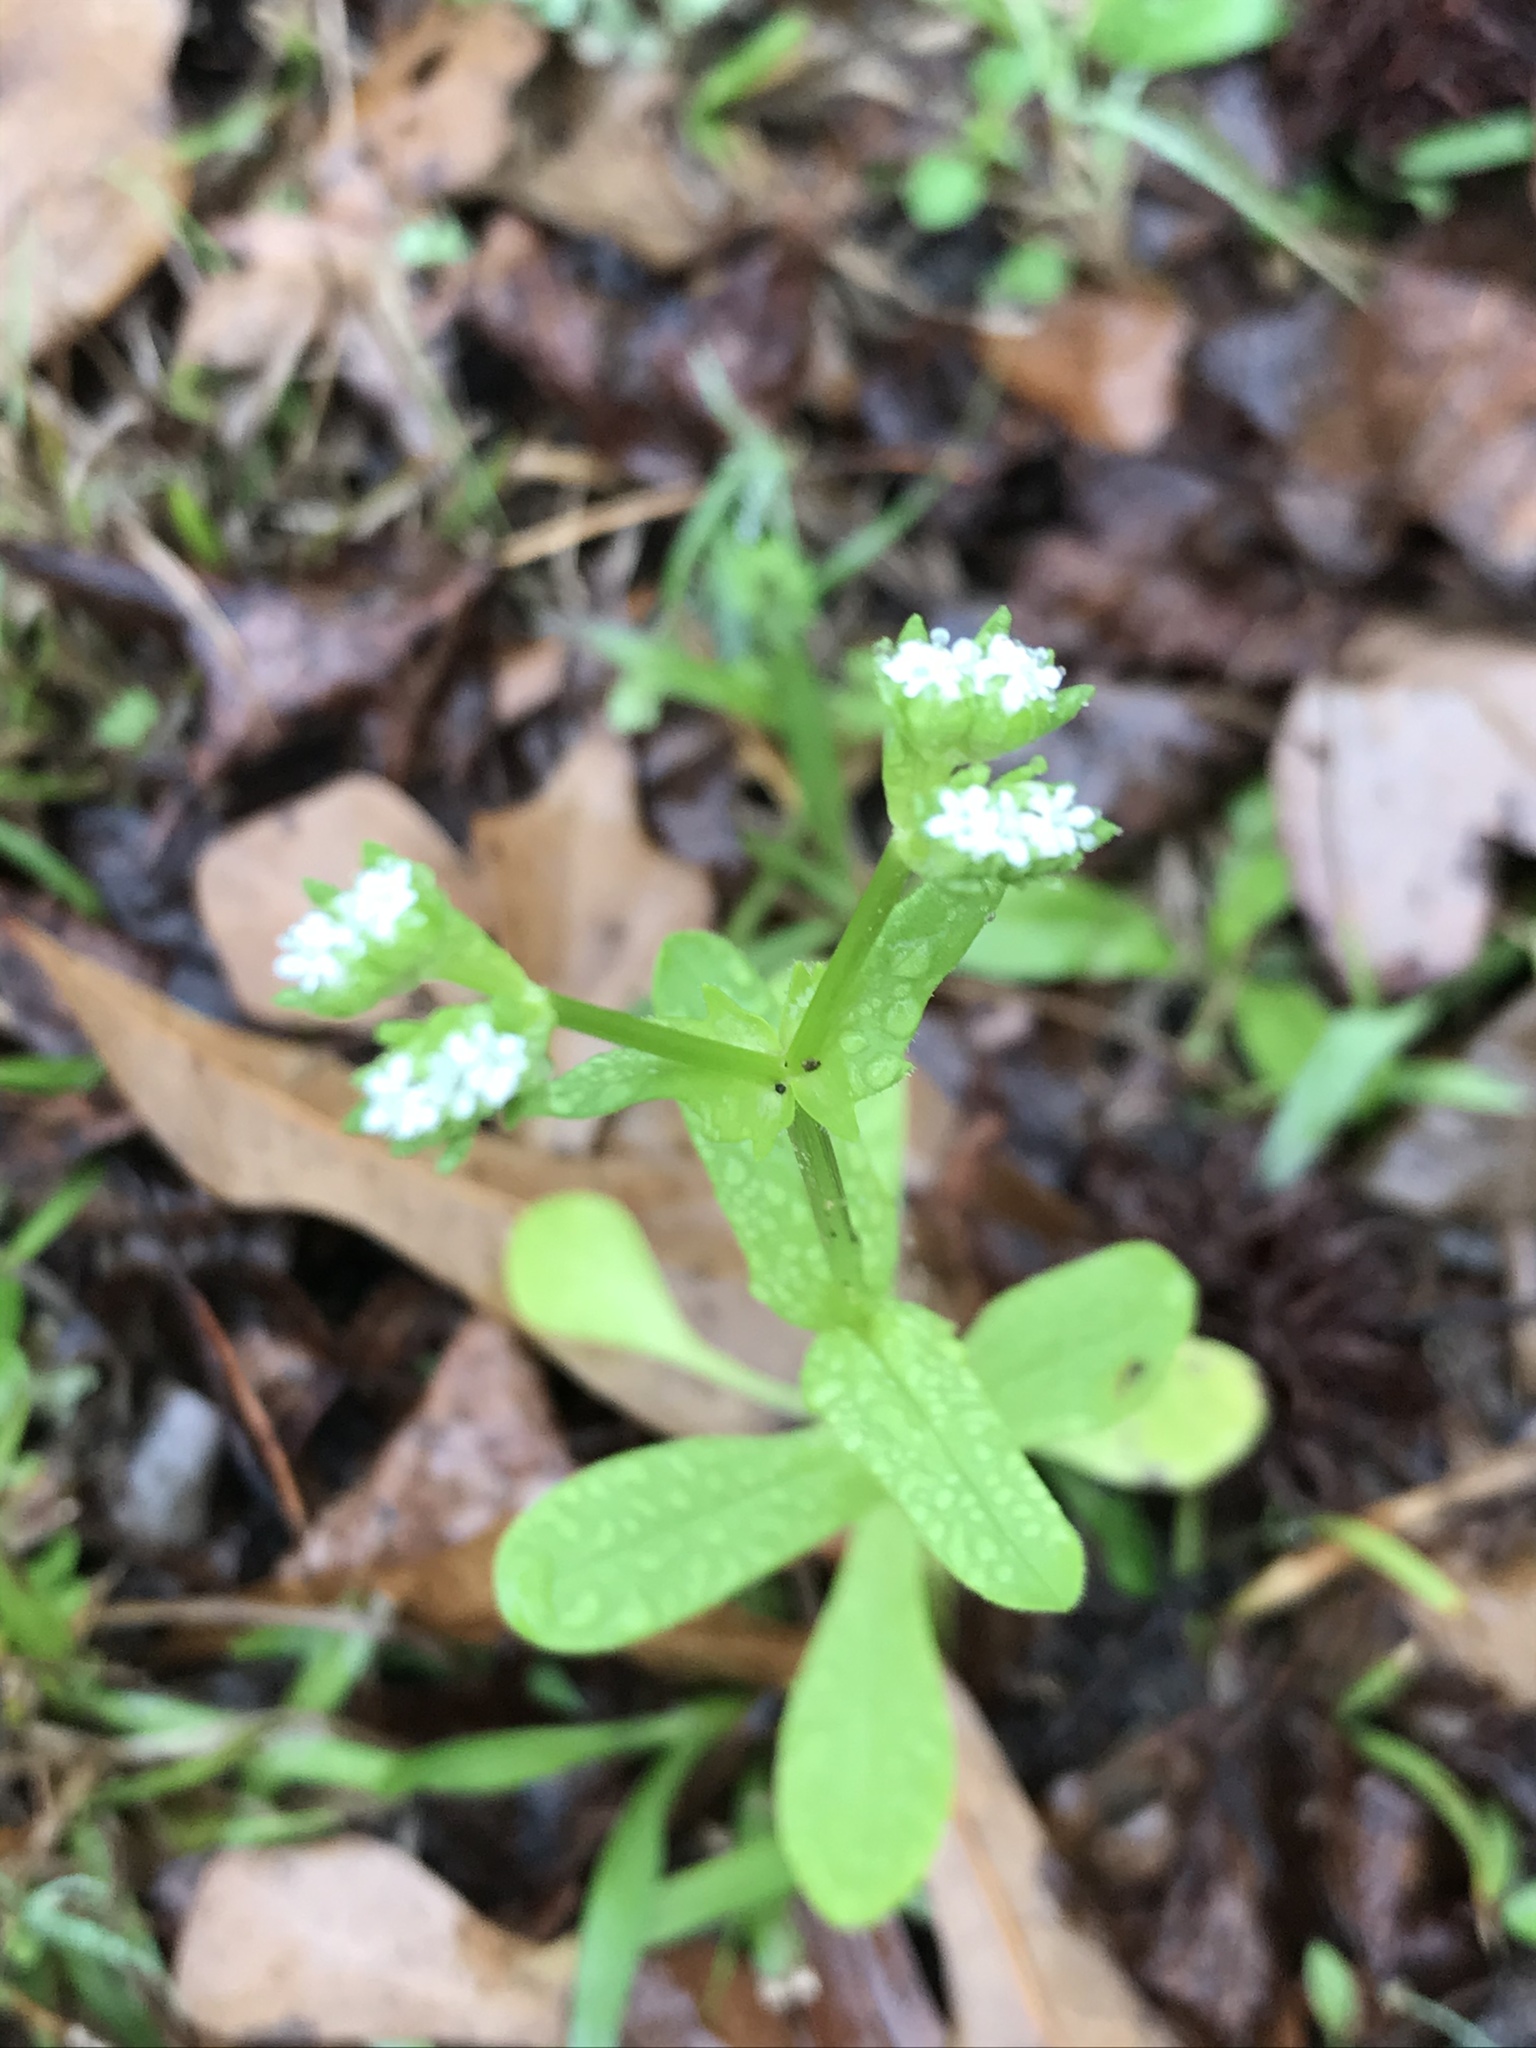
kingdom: Plantae
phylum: Tracheophyta
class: Magnoliopsida
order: Dipsacales
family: Caprifoliaceae
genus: Valerianella
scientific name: Valerianella radiata
